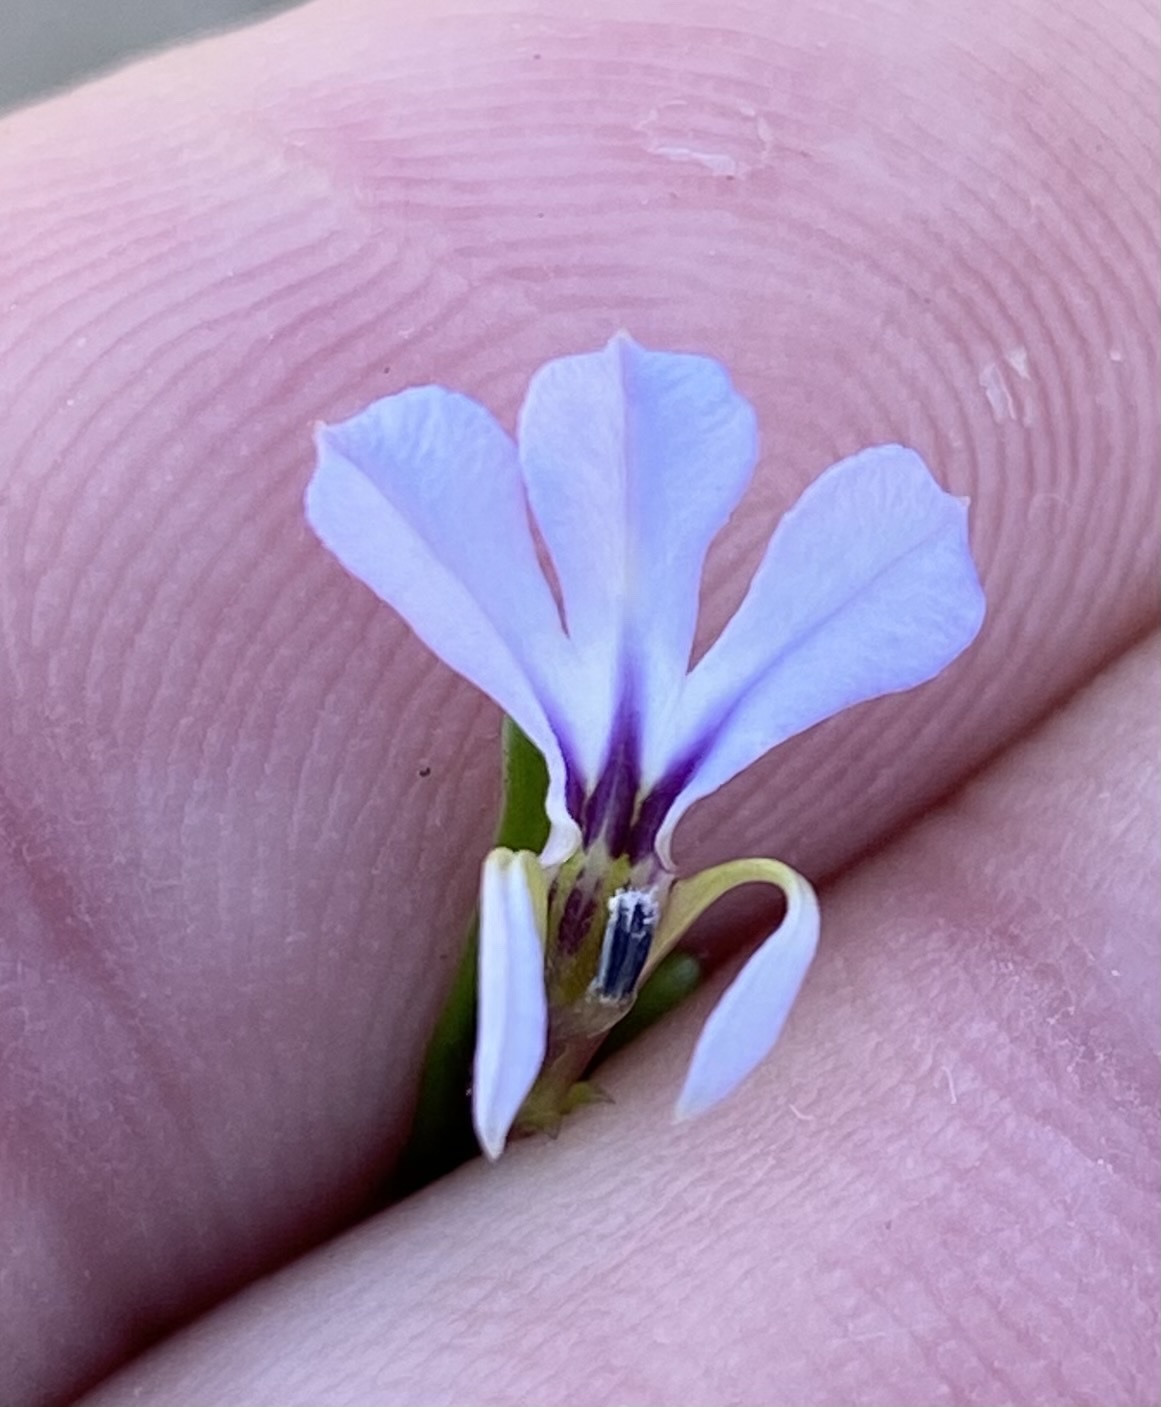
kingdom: Plantae
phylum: Tracheophyta
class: Magnoliopsida
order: Asterales
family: Campanulaceae
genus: Lobelia
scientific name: Lobelia anceps
